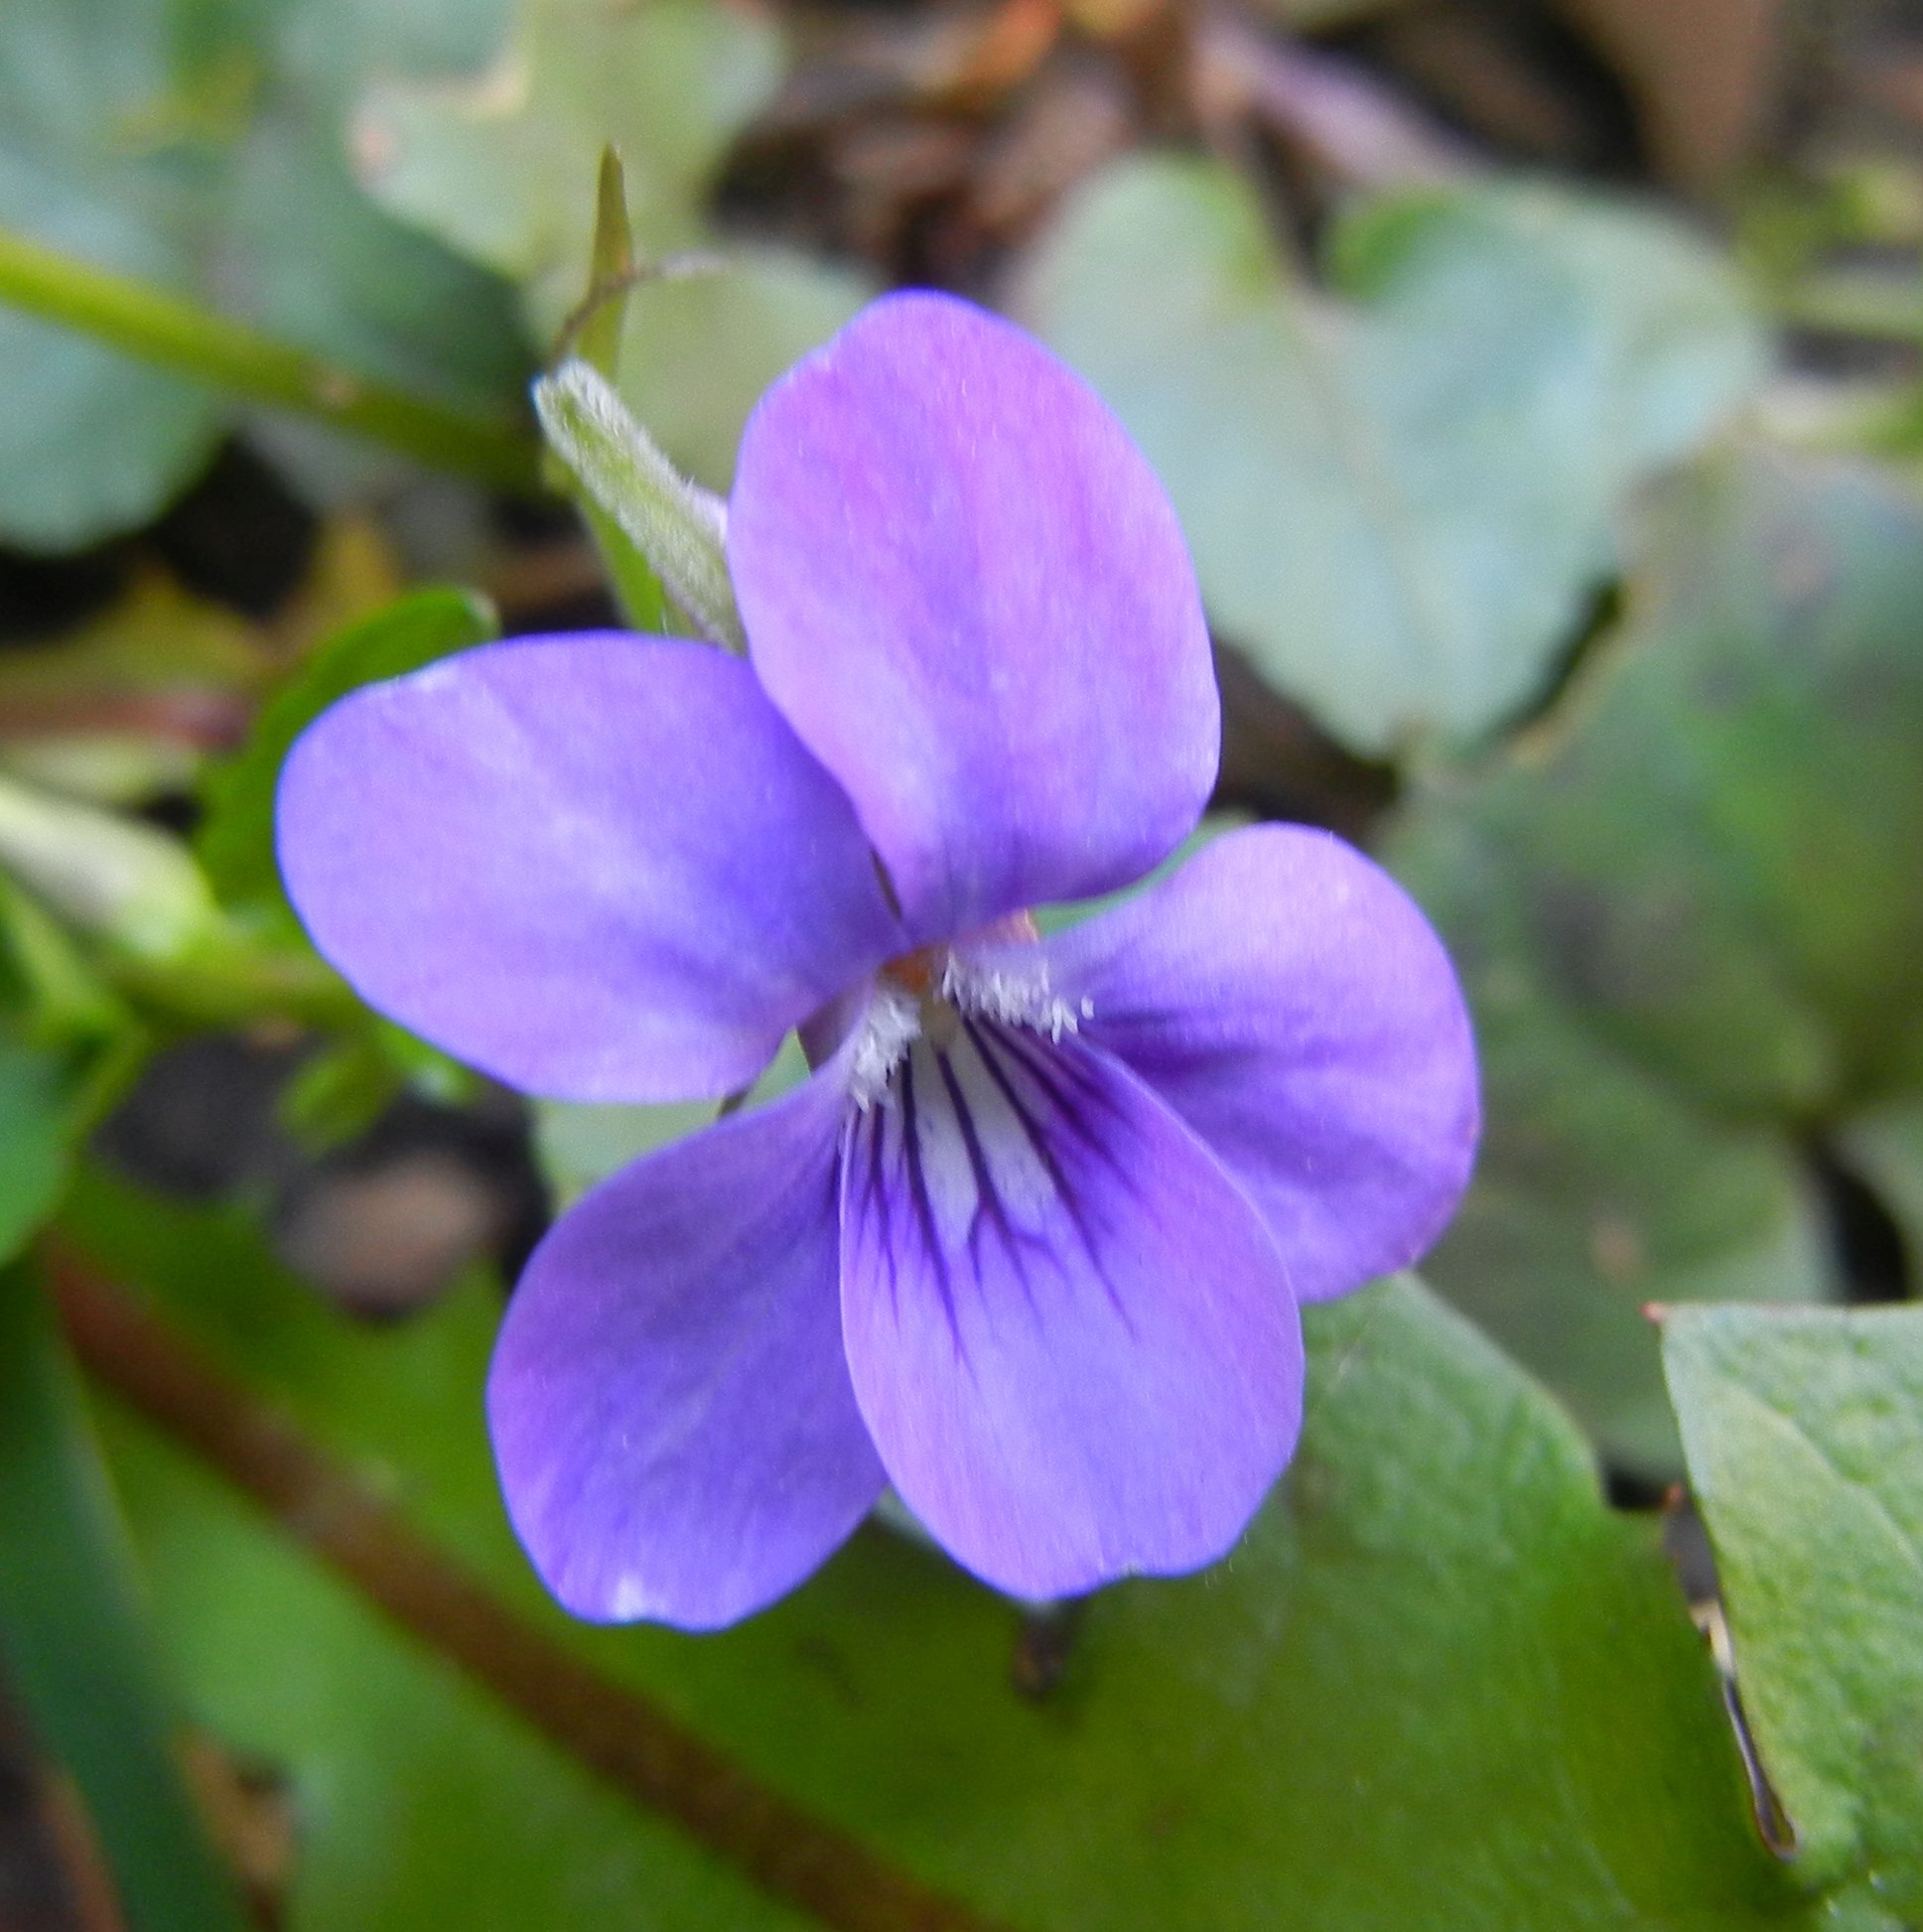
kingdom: Plantae
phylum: Tracheophyta
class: Magnoliopsida
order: Malpighiales
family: Violaceae
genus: Viola
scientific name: Viola riviniana
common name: Common dog-violet
